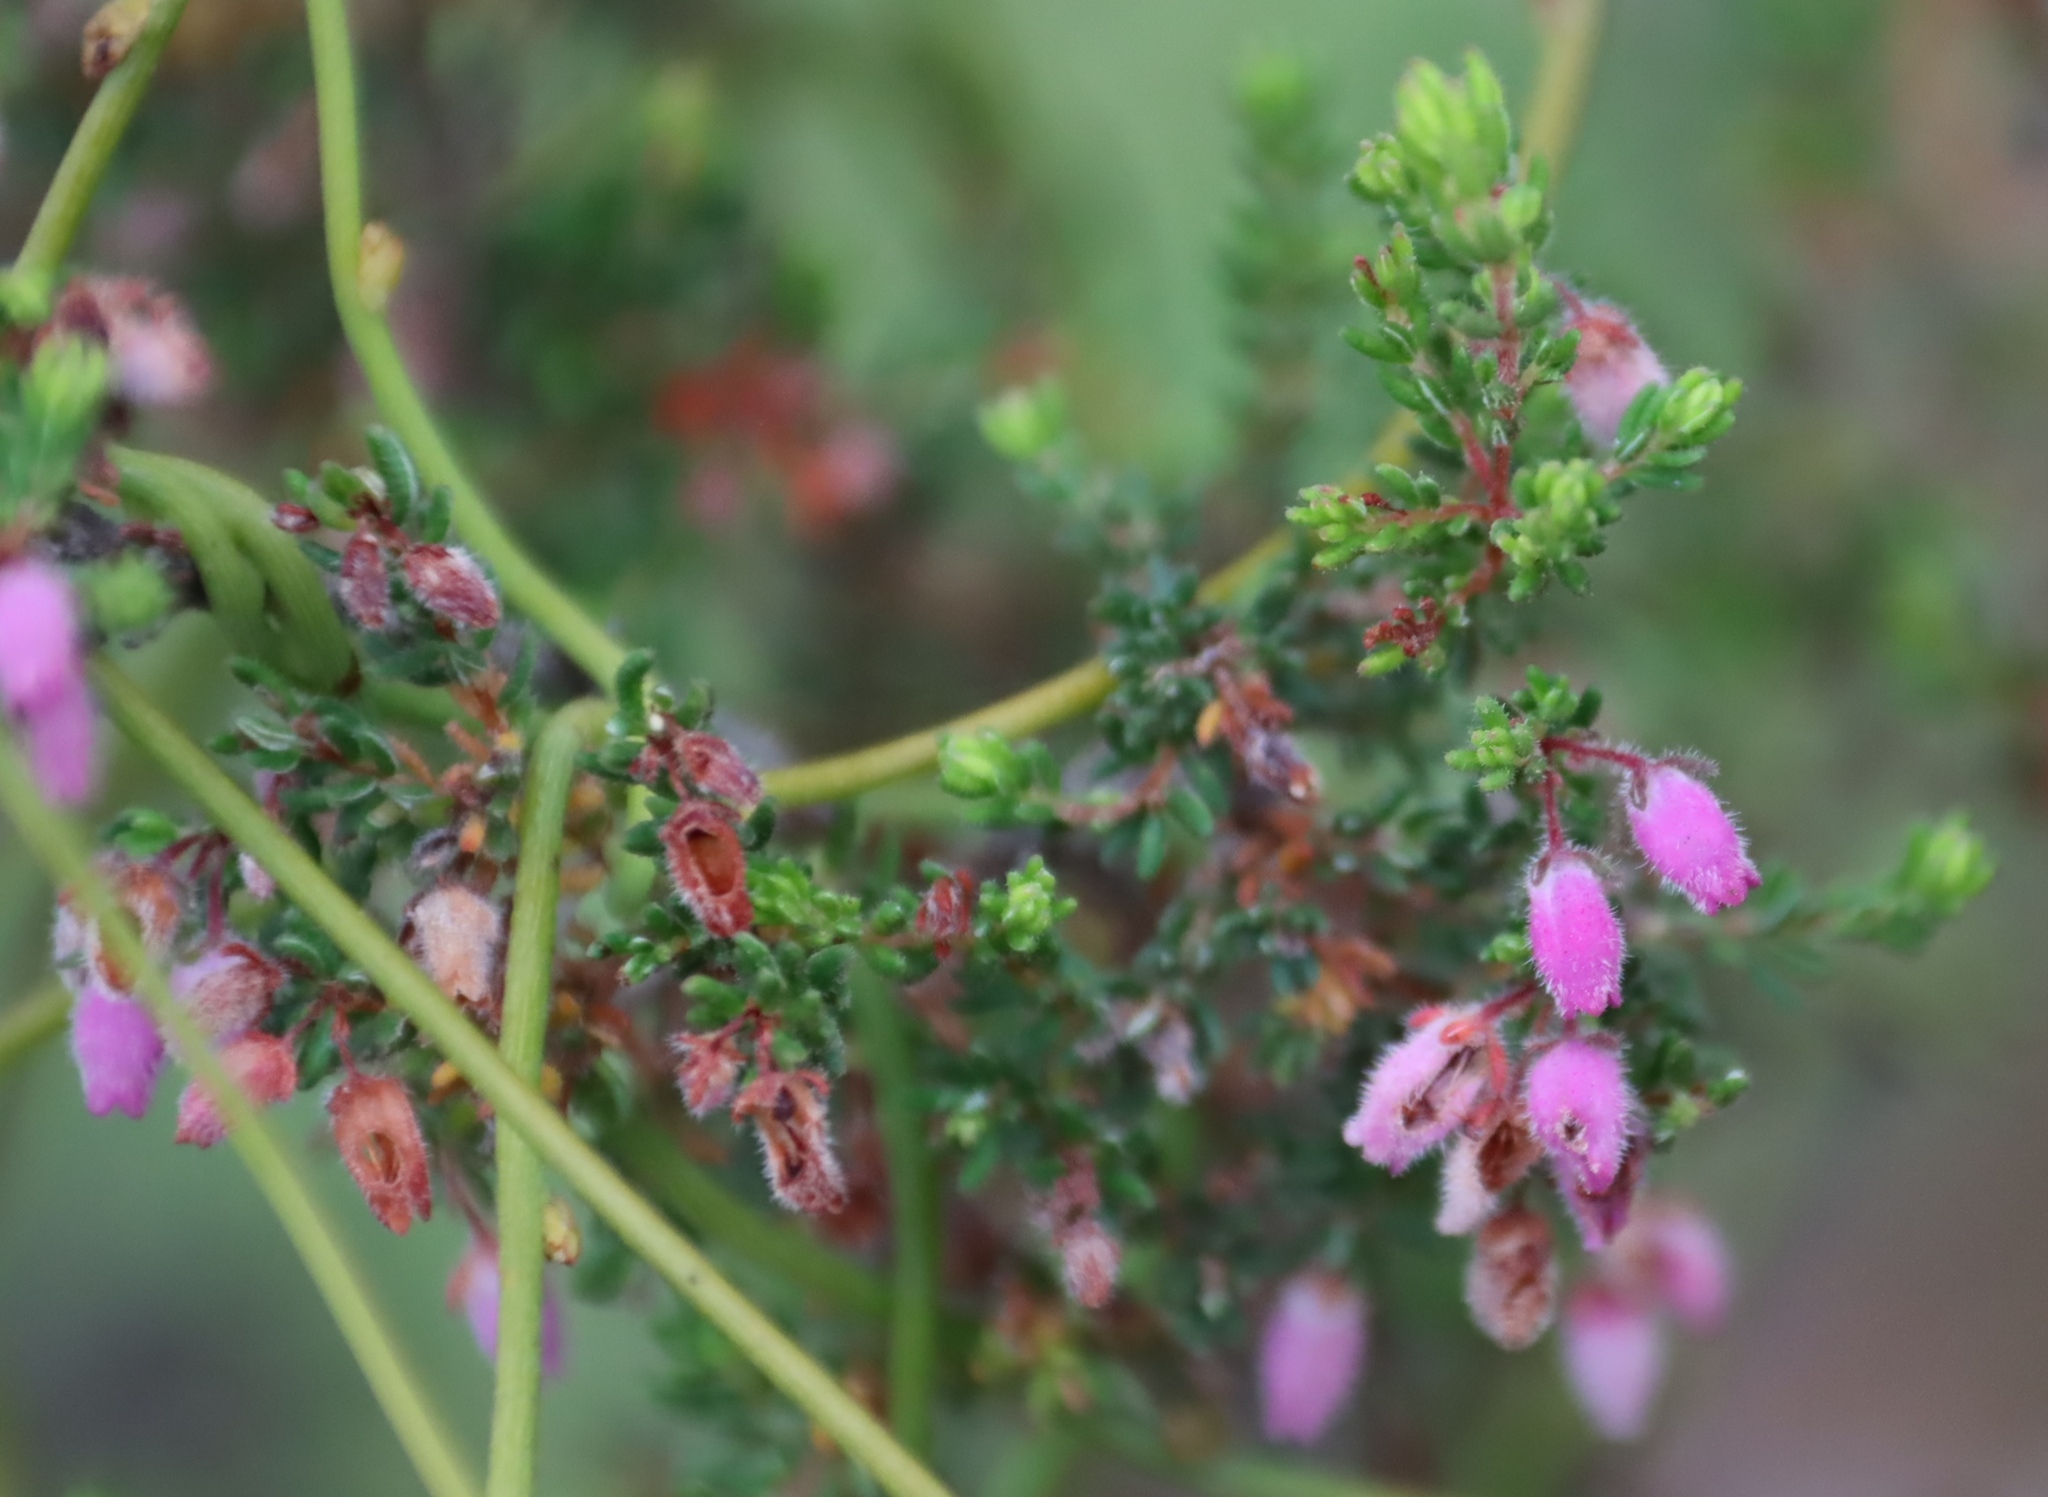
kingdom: Plantae
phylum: Tracheophyta
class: Magnoliopsida
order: Laurales
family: Lauraceae
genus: Cassytha
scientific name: Cassytha ciliolata
